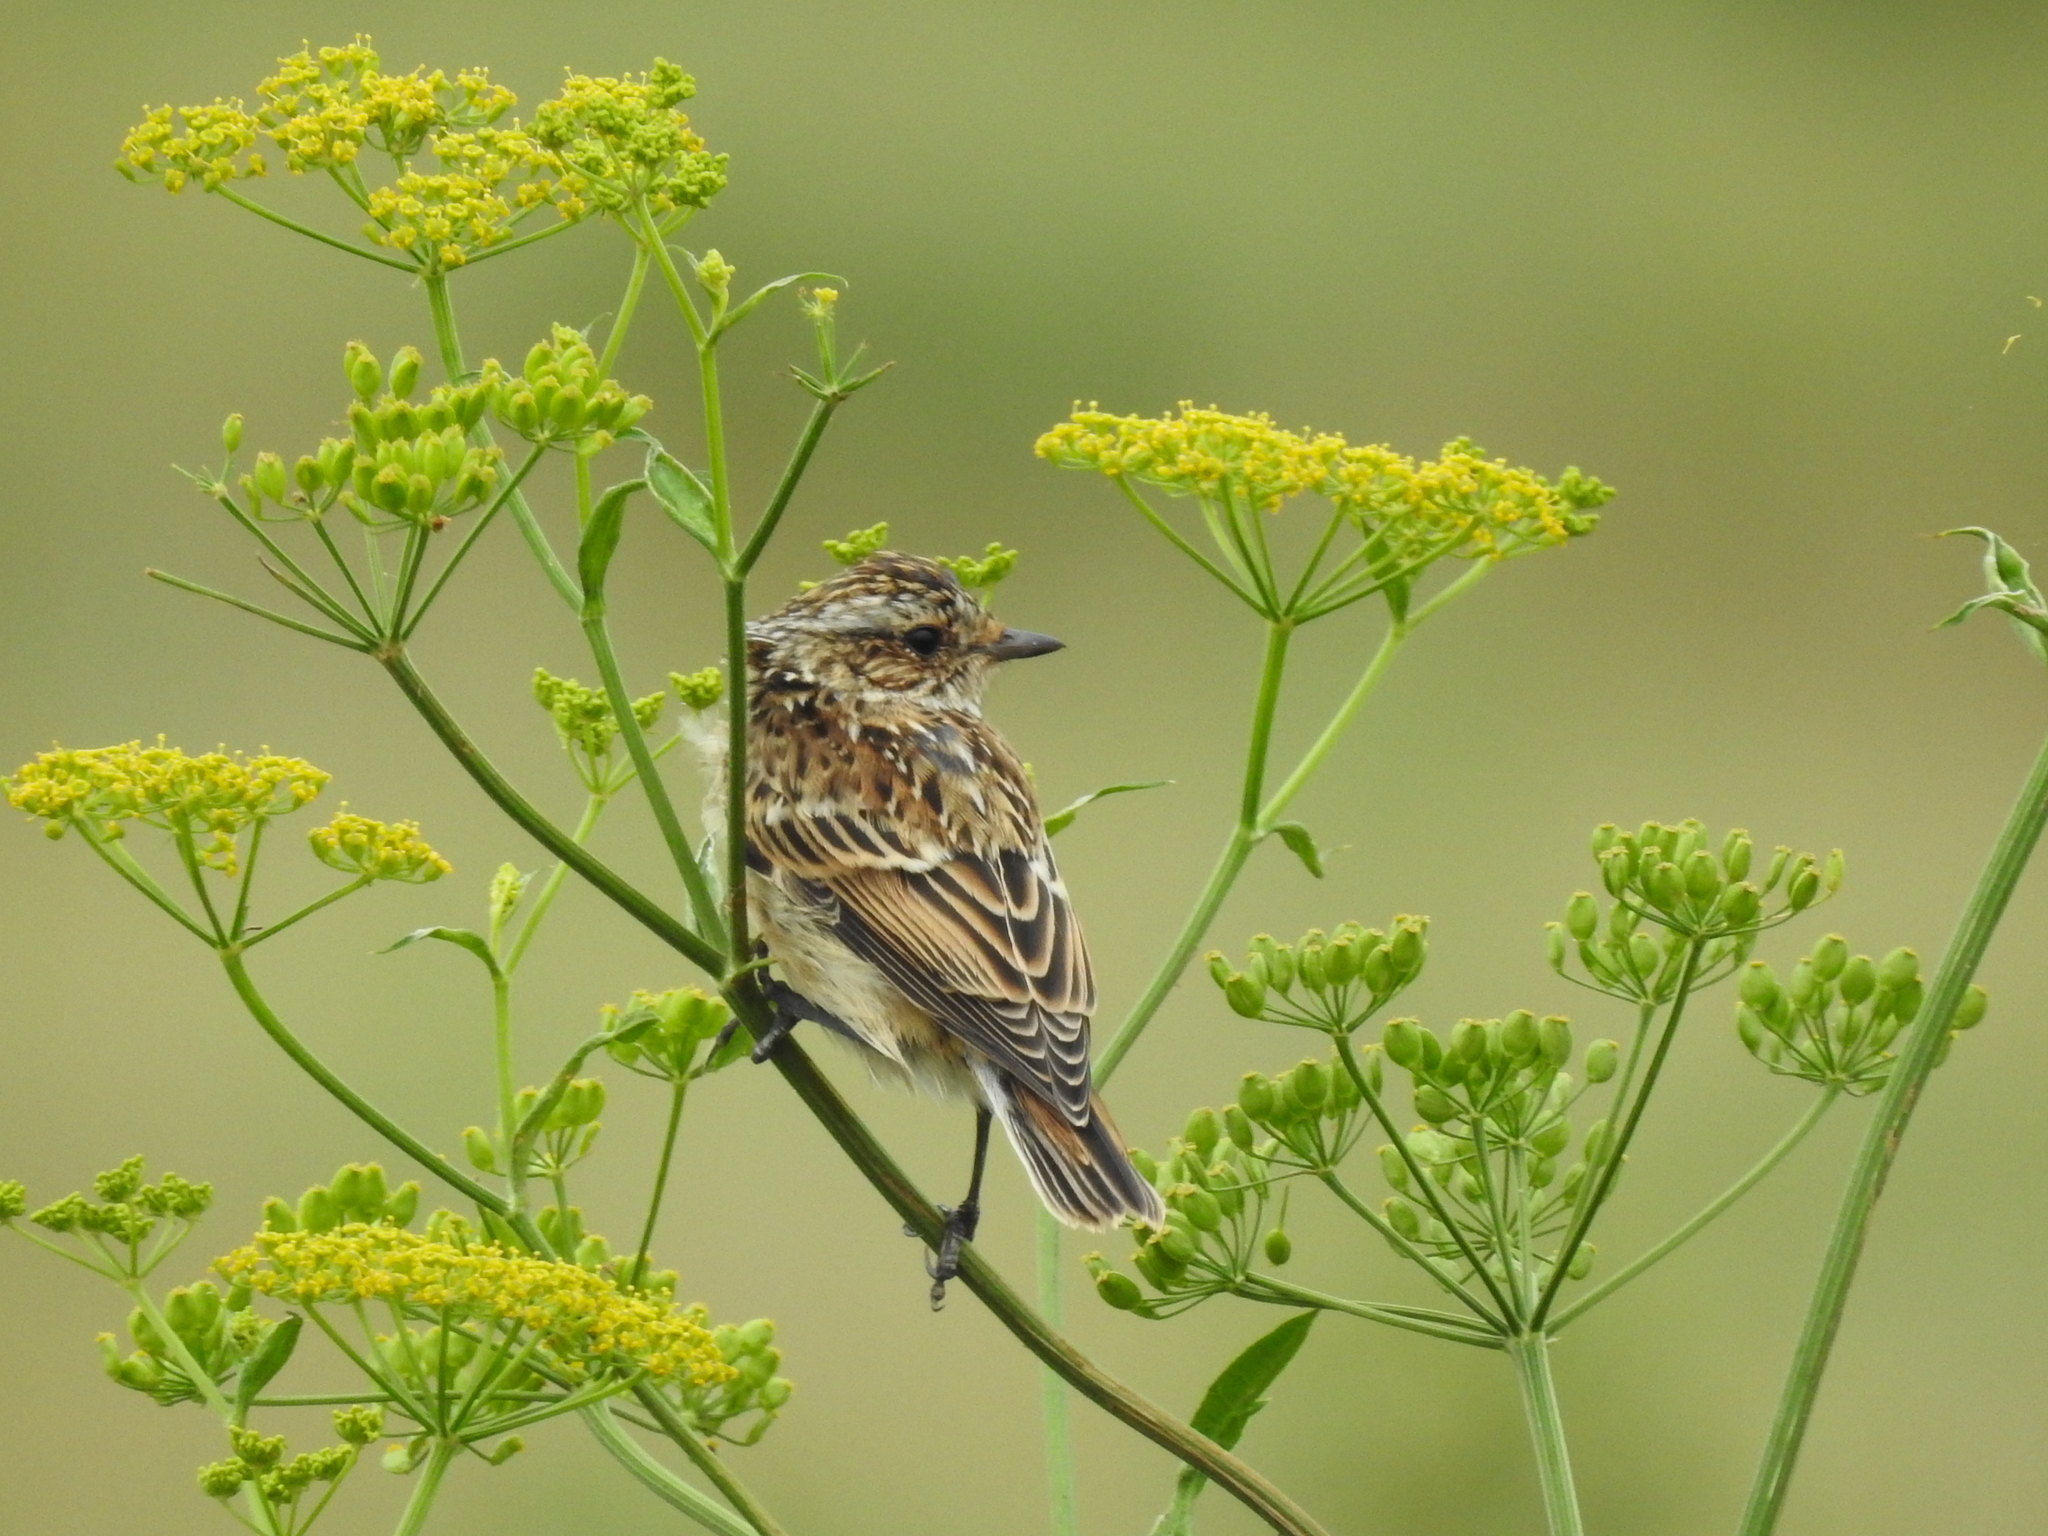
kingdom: Animalia
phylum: Chordata
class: Aves
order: Passeriformes
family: Muscicapidae
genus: Saxicola
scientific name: Saxicola rubetra
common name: Whinchat
